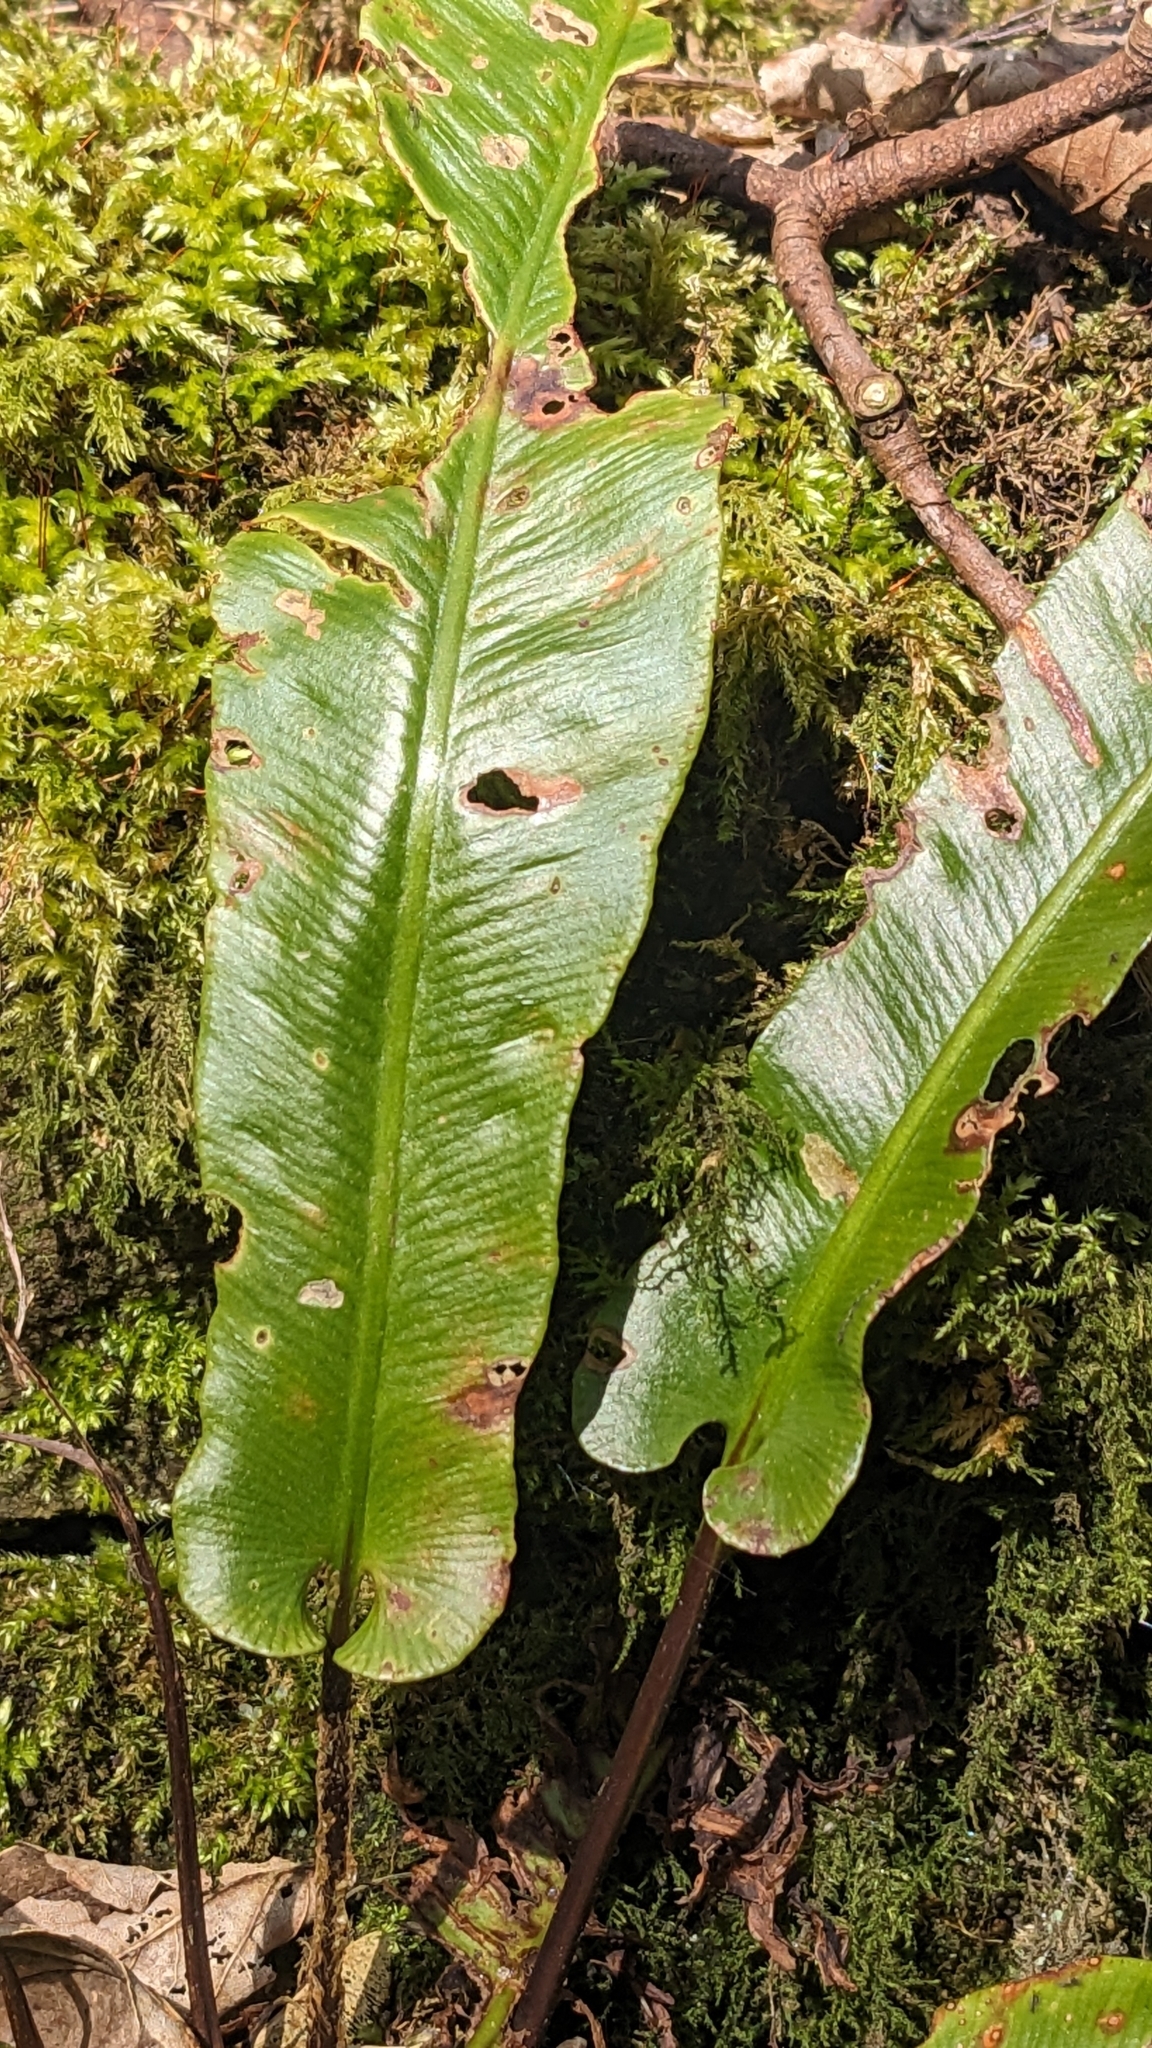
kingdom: Plantae
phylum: Tracheophyta
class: Polypodiopsida
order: Polypodiales
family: Aspleniaceae
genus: Asplenium
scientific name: Asplenium scolopendrium
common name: Hart's-tongue fern
